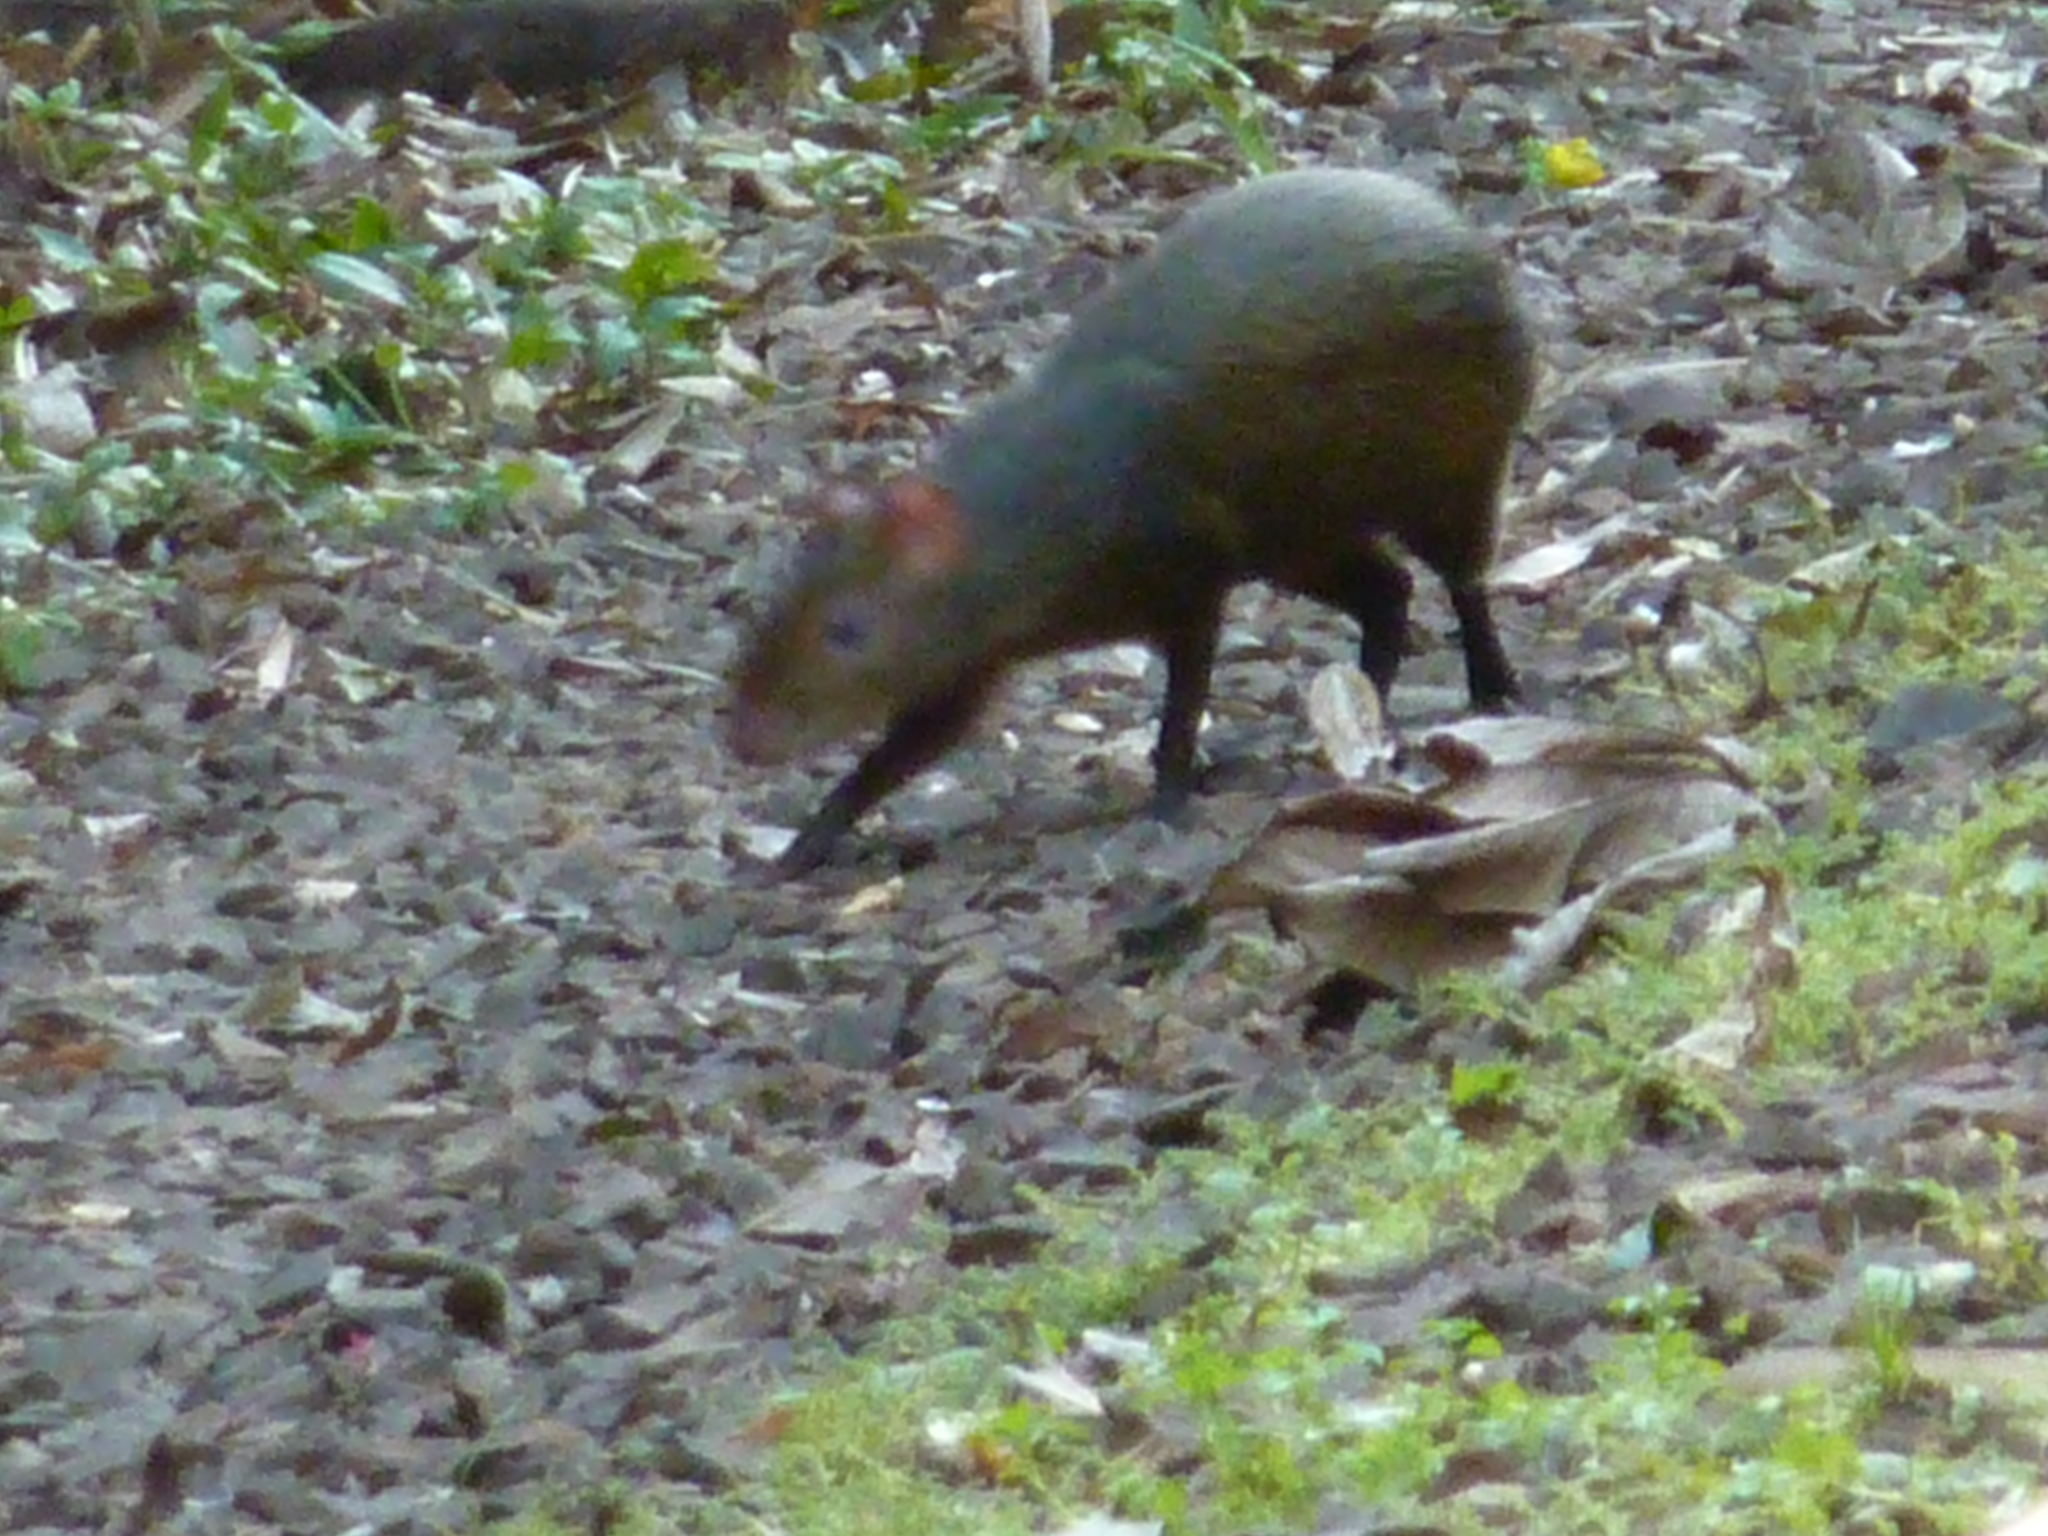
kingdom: Animalia
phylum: Chordata
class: Mammalia
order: Rodentia
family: Dasyproctidae
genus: Dasyprocta
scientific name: Dasyprocta azarae
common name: Azara's agouti
